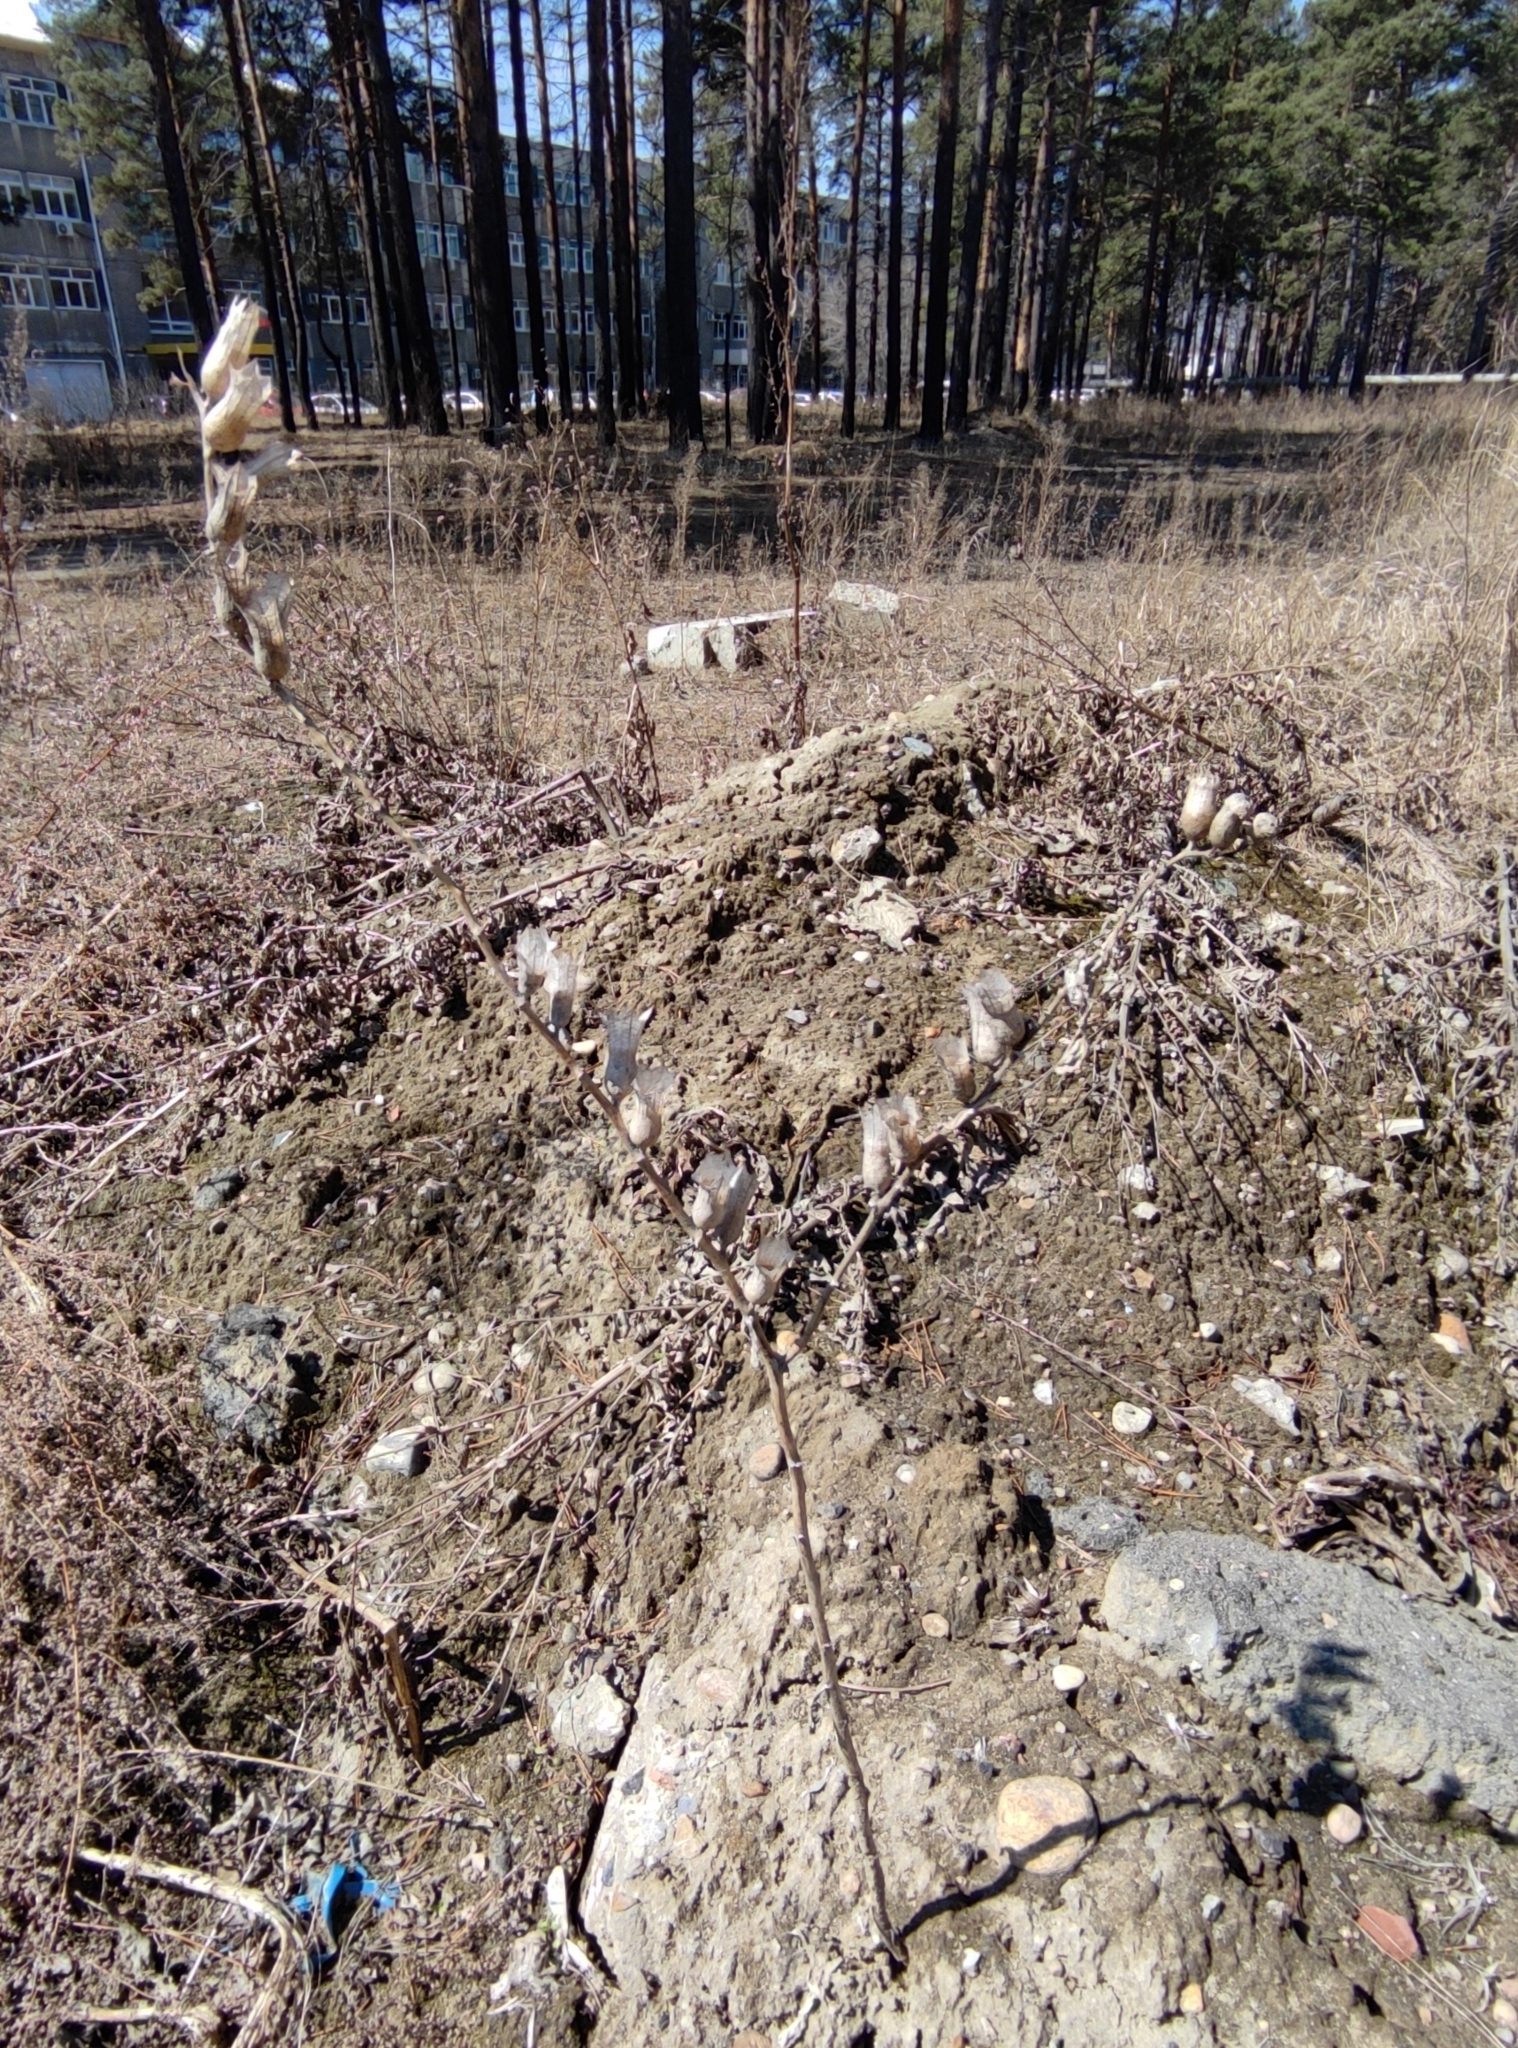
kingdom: Plantae
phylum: Tracheophyta
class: Magnoliopsida
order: Solanales
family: Solanaceae
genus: Hyoscyamus
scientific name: Hyoscyamus niger
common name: Henbane
